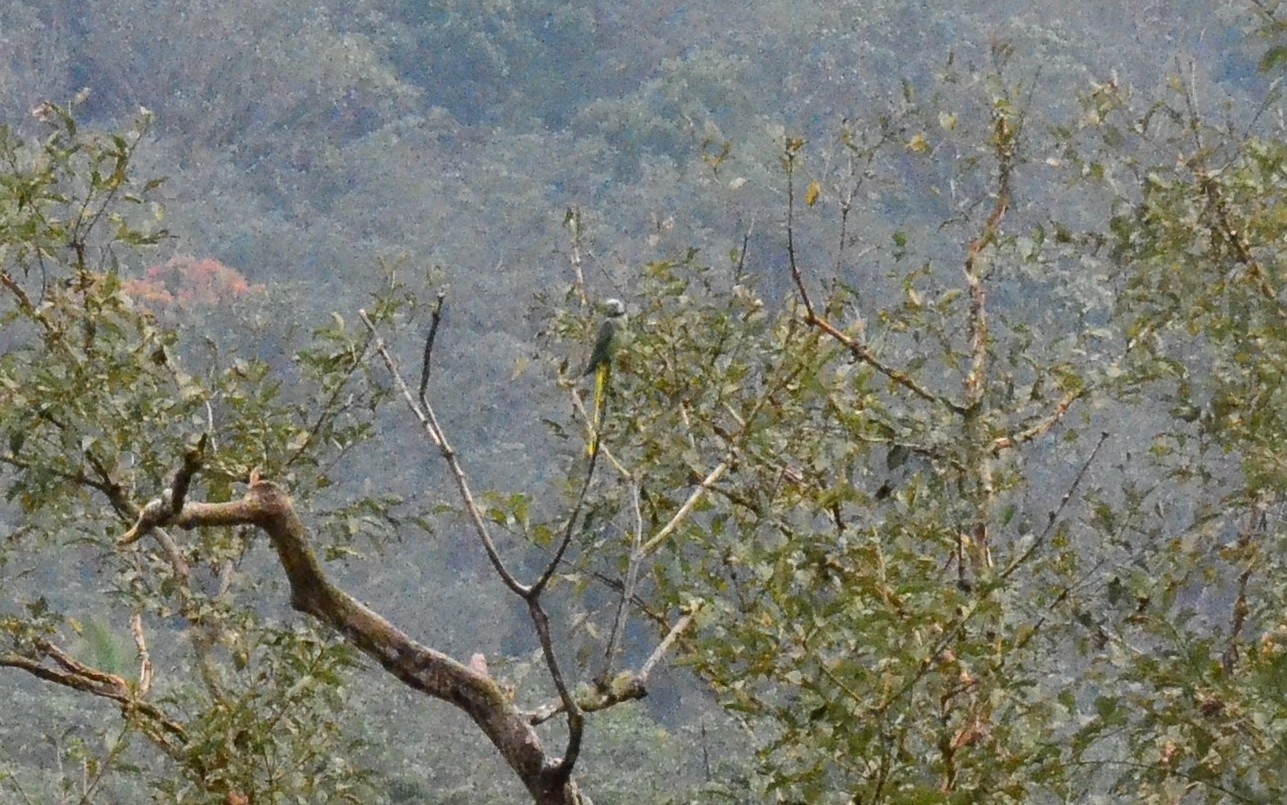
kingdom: Animalia
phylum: Chordata
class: Aves
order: Psittaciformes
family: Psittacidae
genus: Psittacula
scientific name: Psittacula columboides
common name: Blue-winged parakeet
